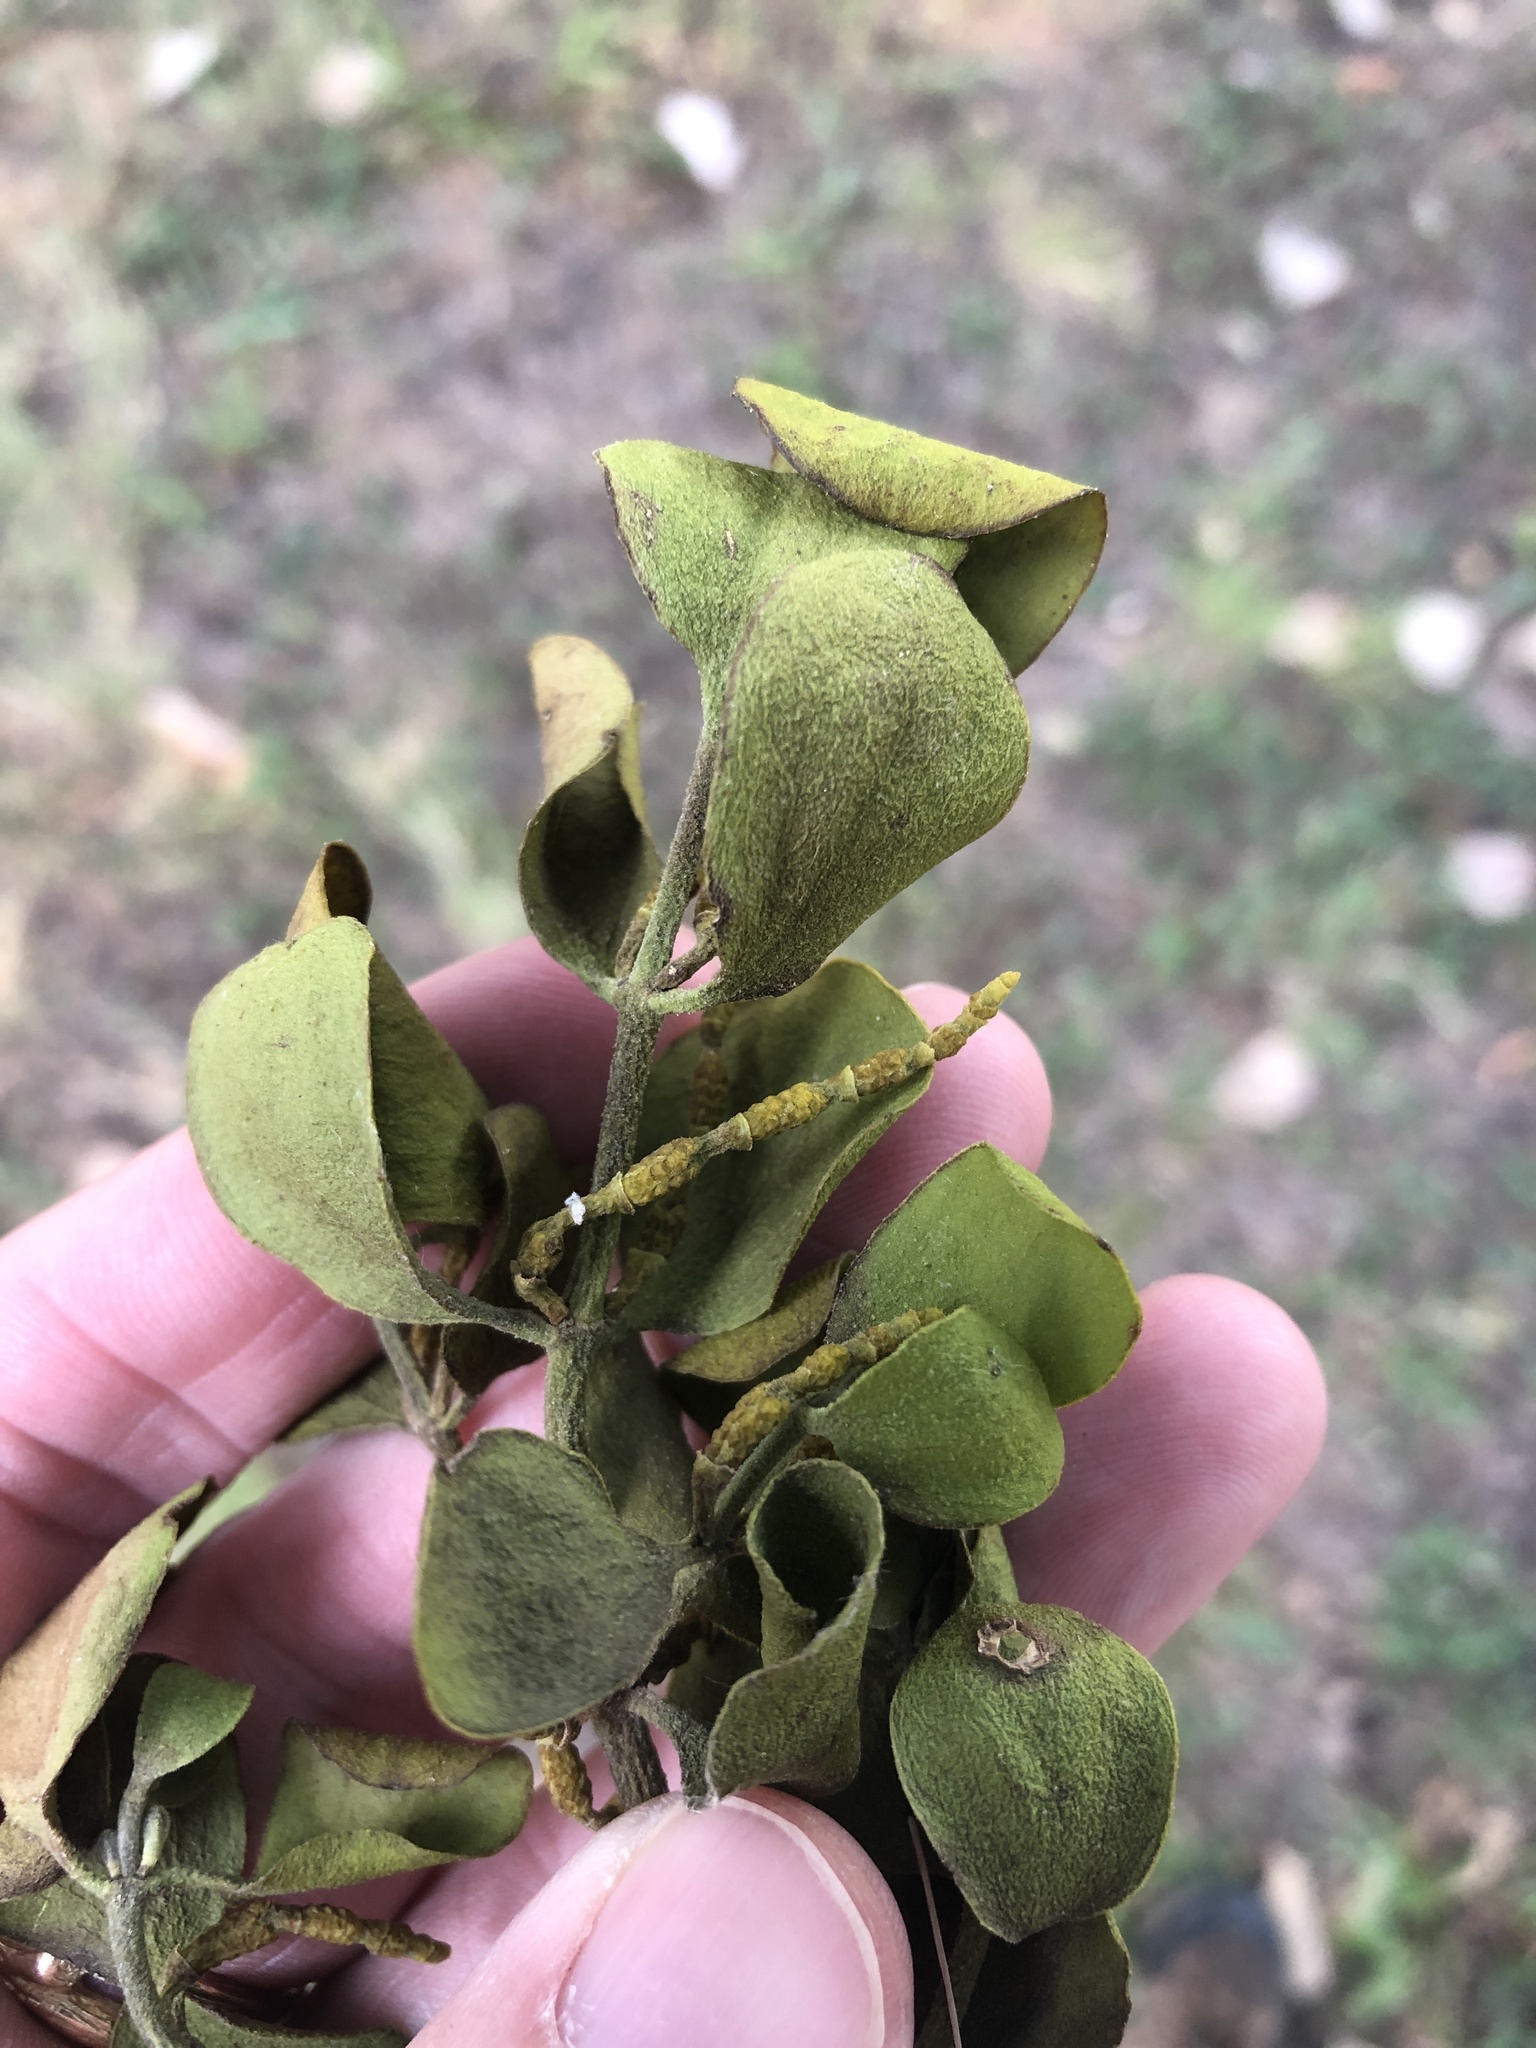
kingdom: Plantae
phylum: Tracheophyta
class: Magnoliopsida
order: Santalales
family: Viscaceae
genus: Phoradendron
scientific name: Phoradendron leucarpum
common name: Pacific mistletoe
